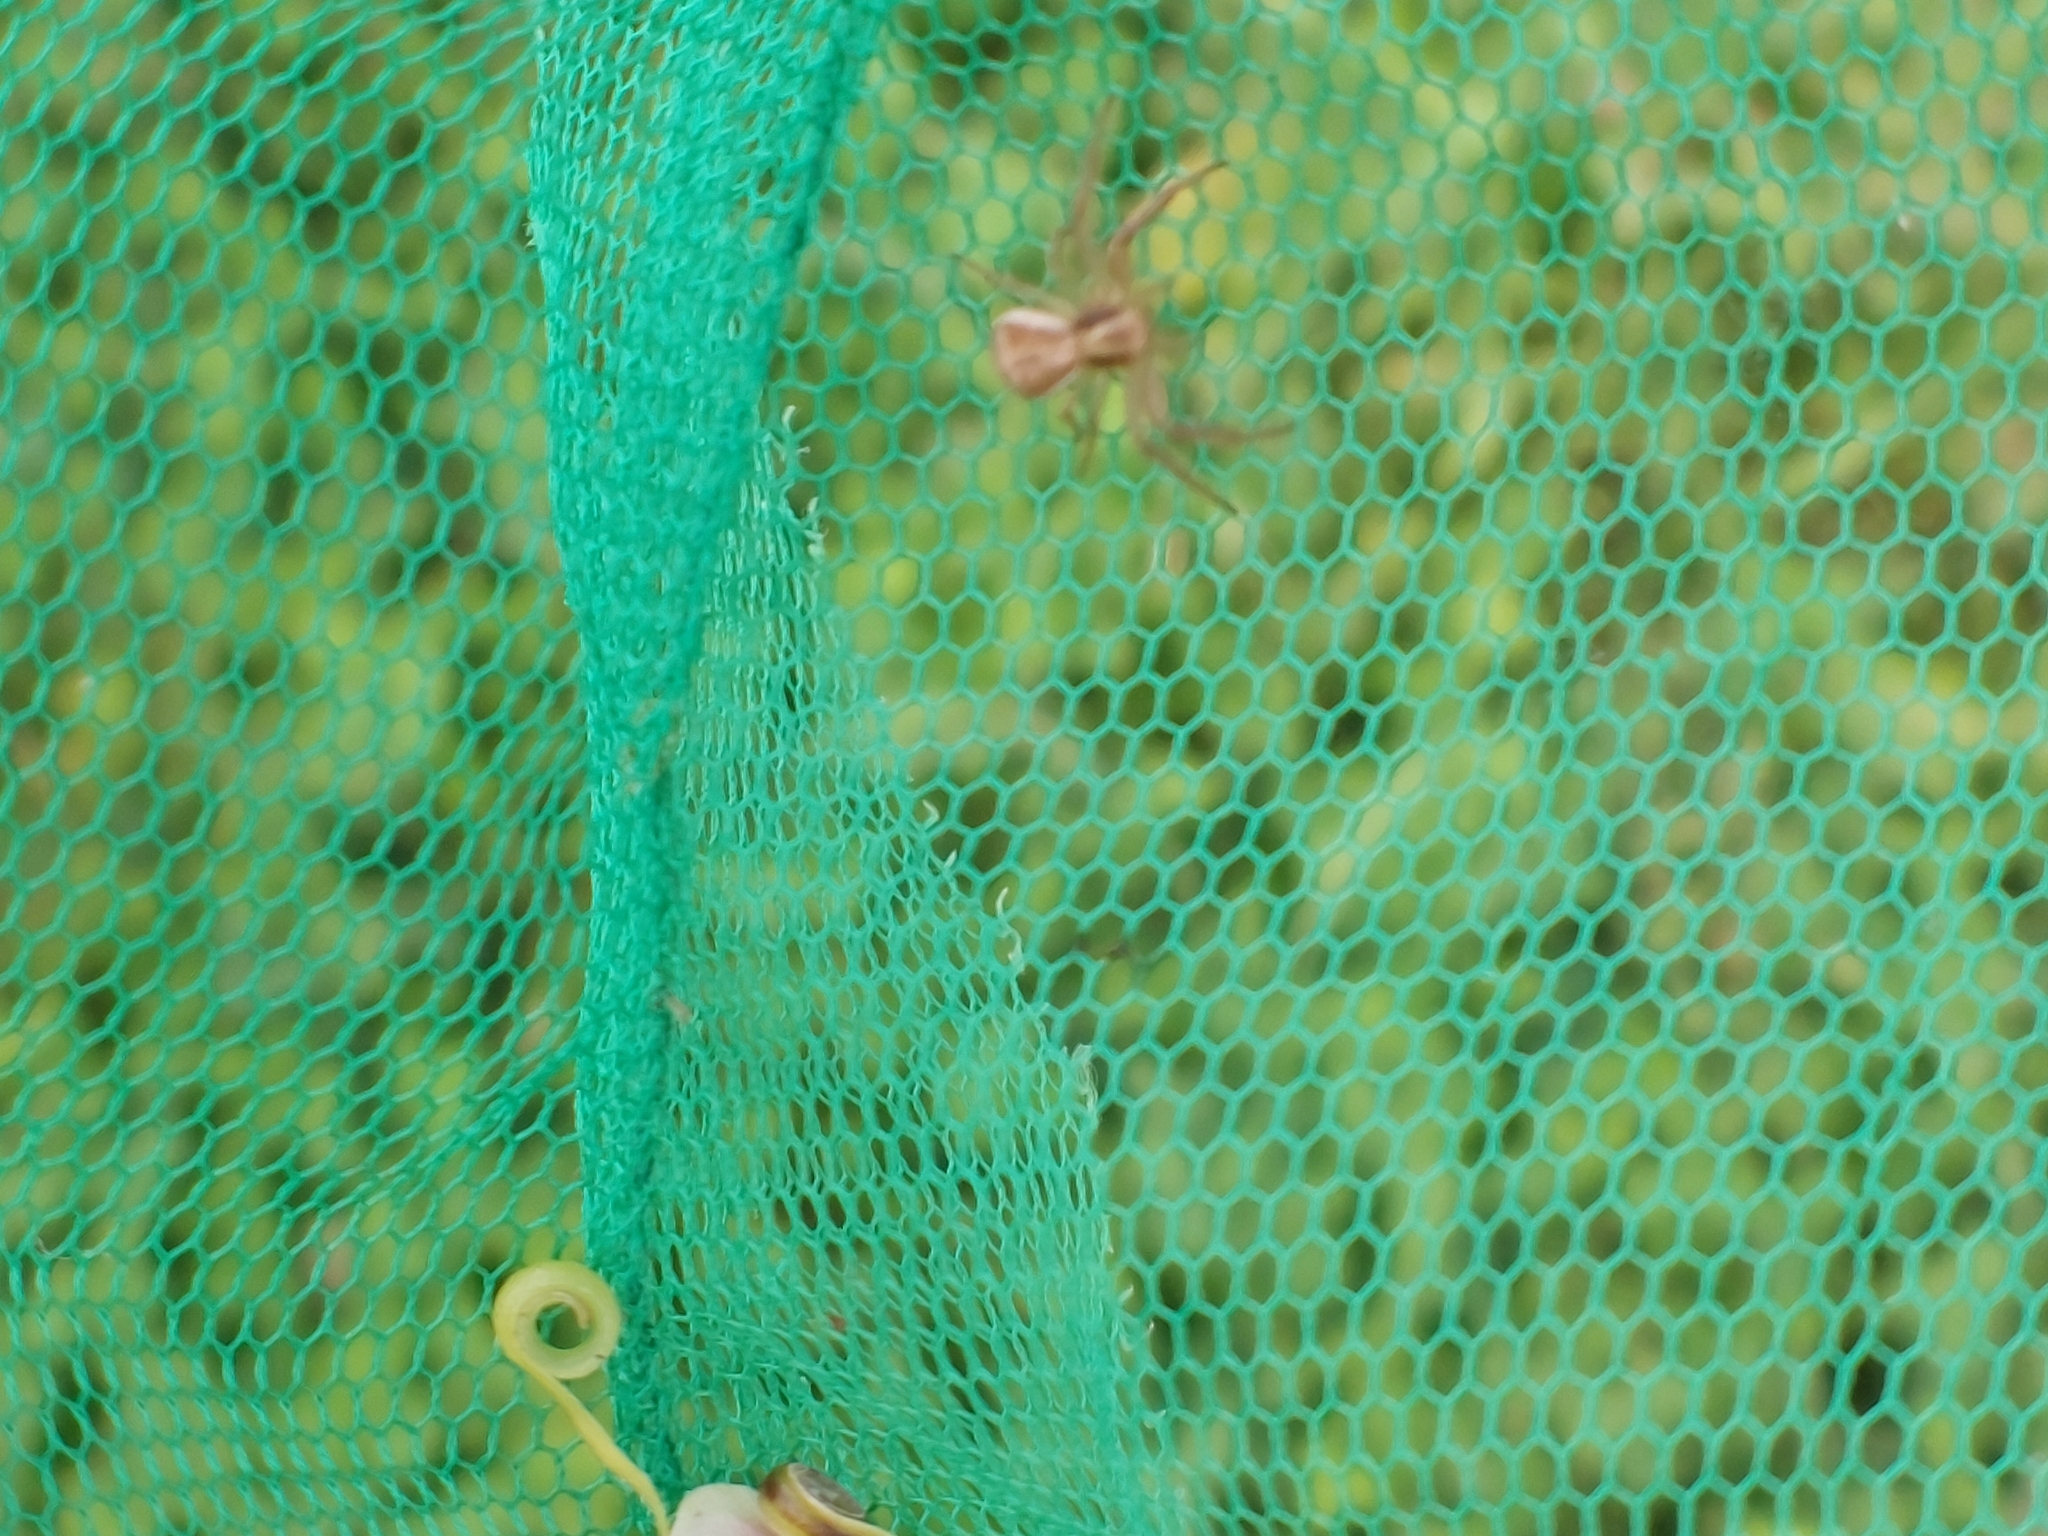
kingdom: Animalia
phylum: Arthropoda
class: Arachnida
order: Araneae
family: Thomisidae
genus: Xysticus
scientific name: Xysticus ulmi
